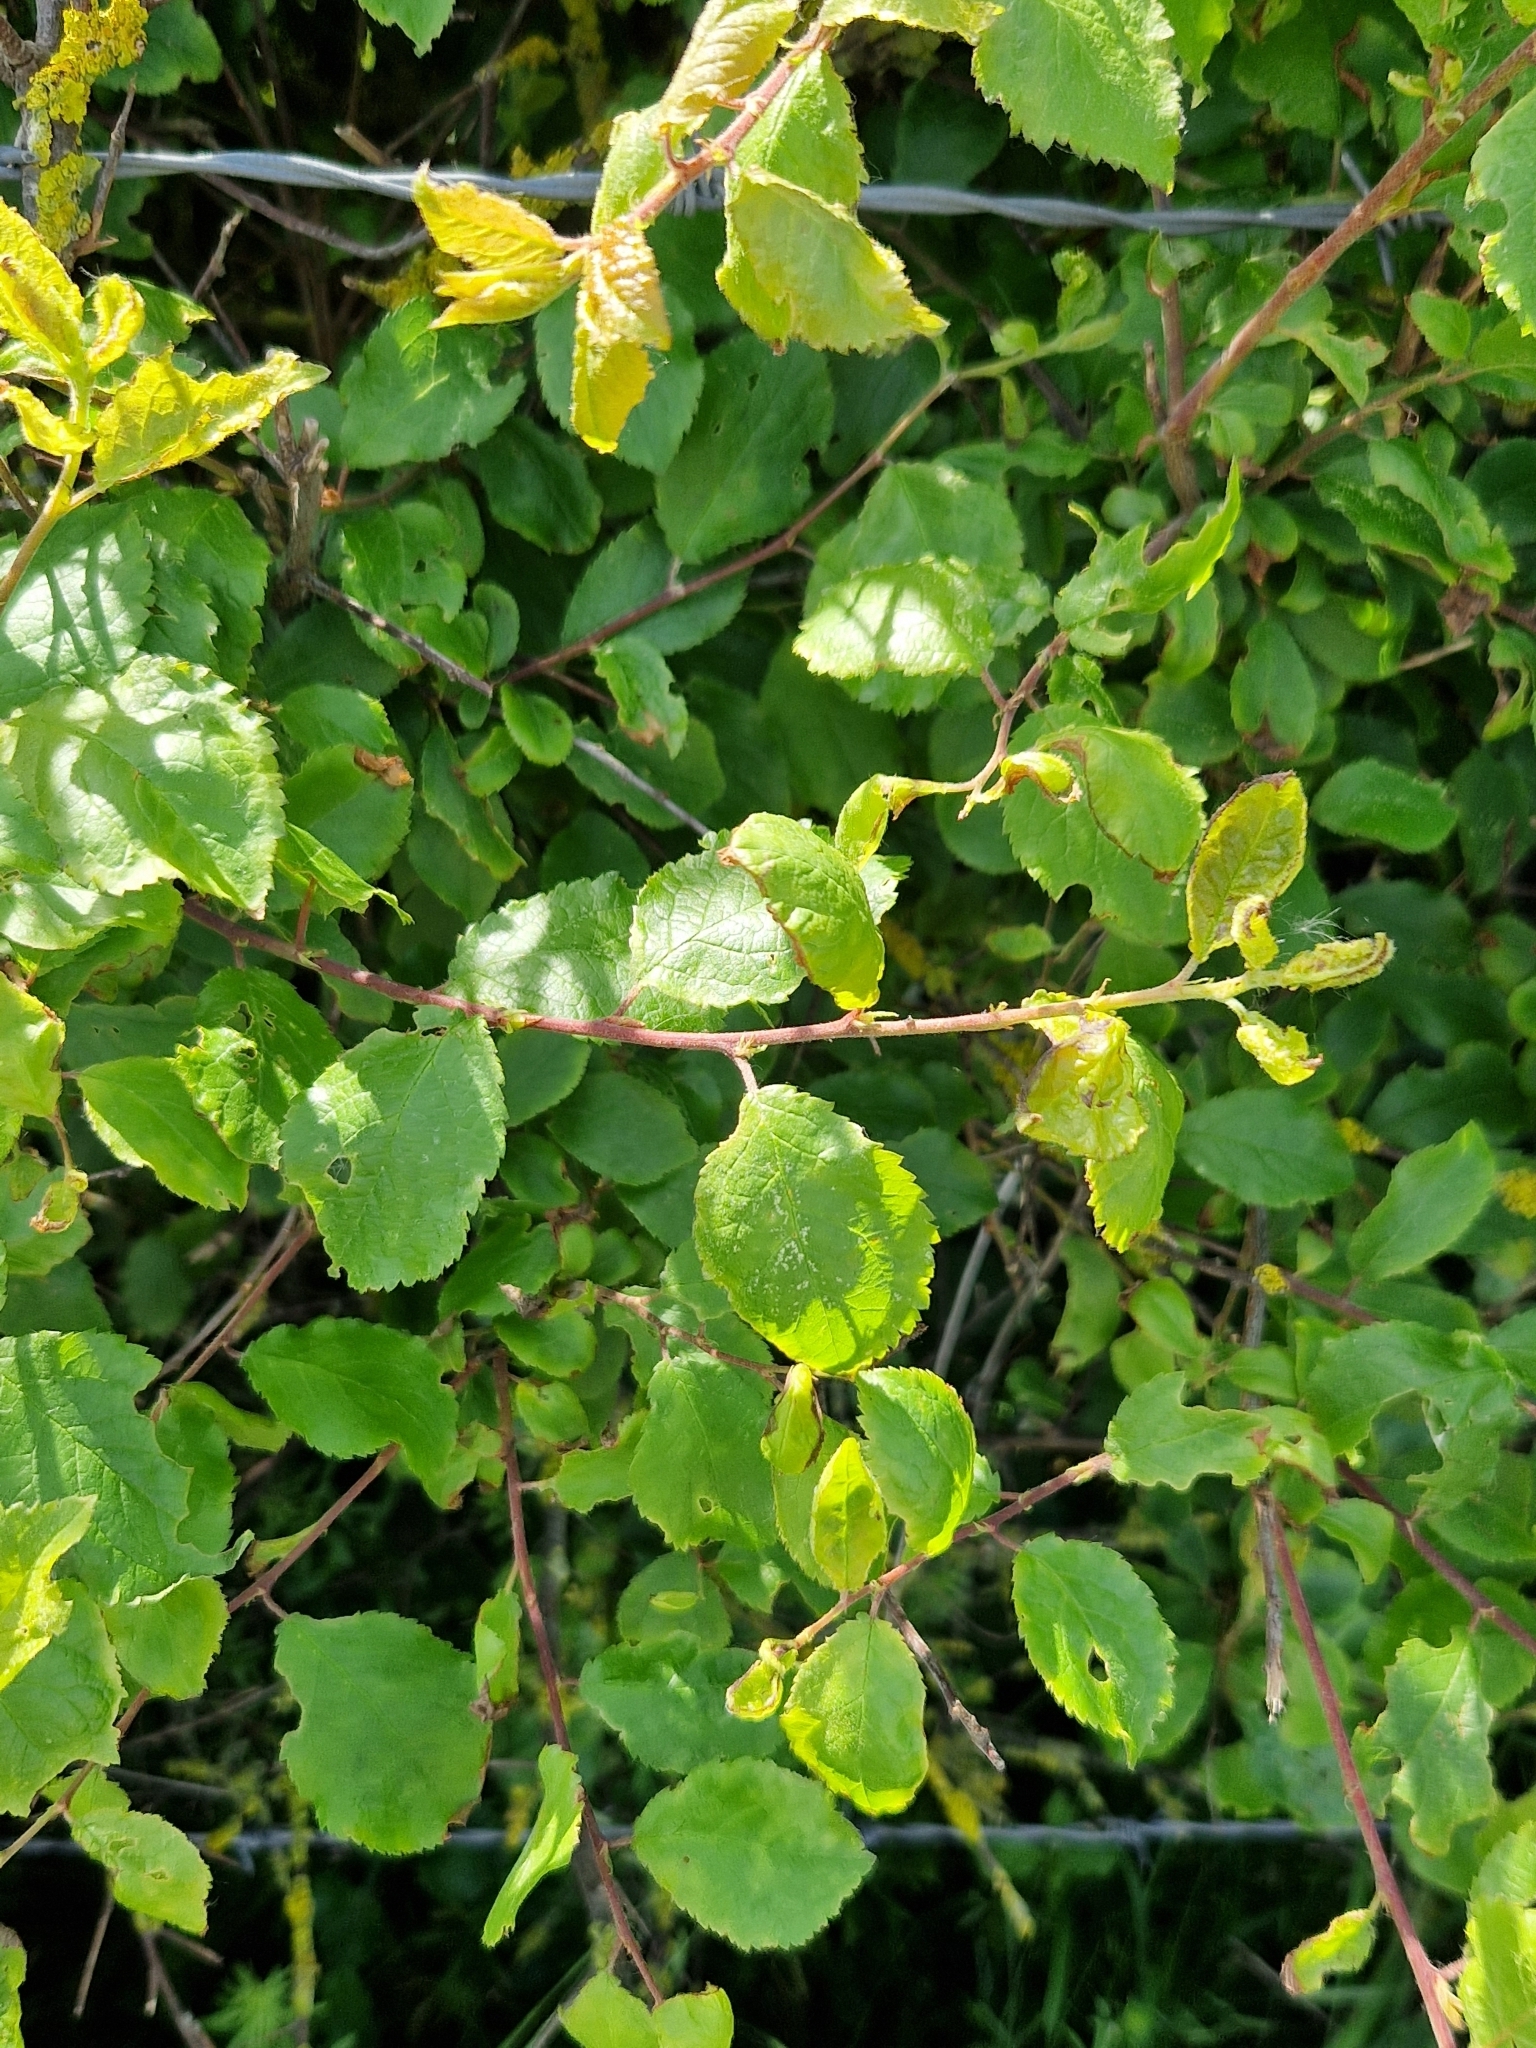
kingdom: Plantae
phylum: Tracheophyta
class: Magnoliopsida
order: Rosales
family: Rosaceae
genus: Prunus
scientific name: Prunus spinosa
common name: Blackthorn
